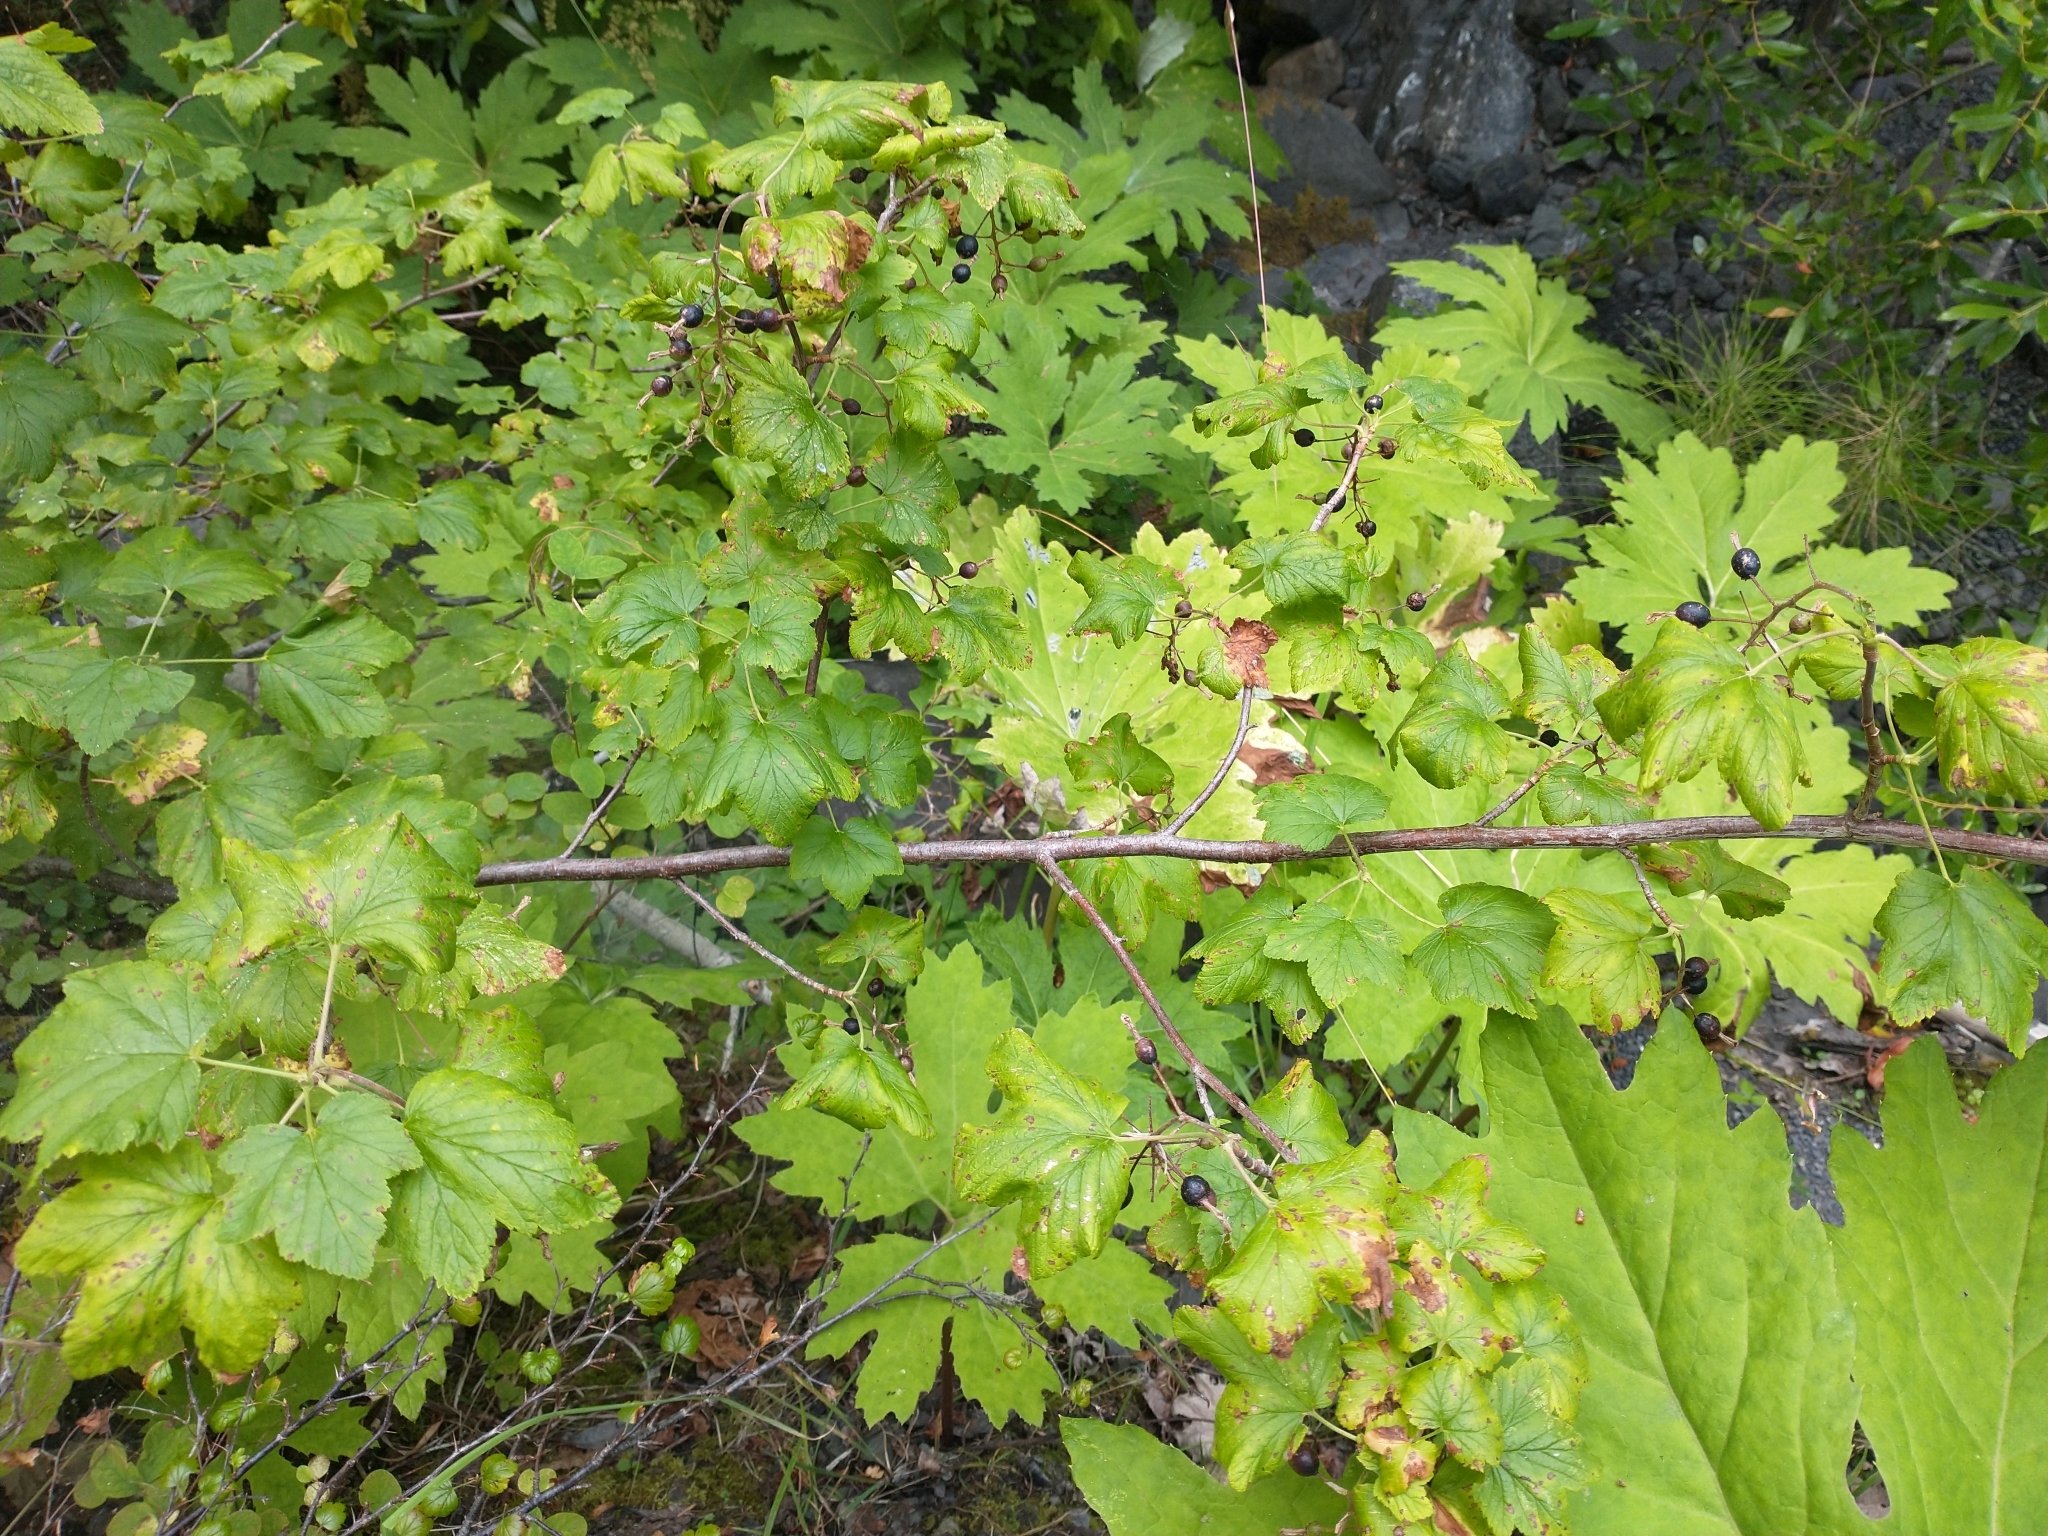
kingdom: Plantae
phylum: Tracheophyta
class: Magnoliopsida
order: Saxifragales
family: Grossulariaceae
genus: Ribes
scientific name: Ribes sanguineum
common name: Flowering currant
